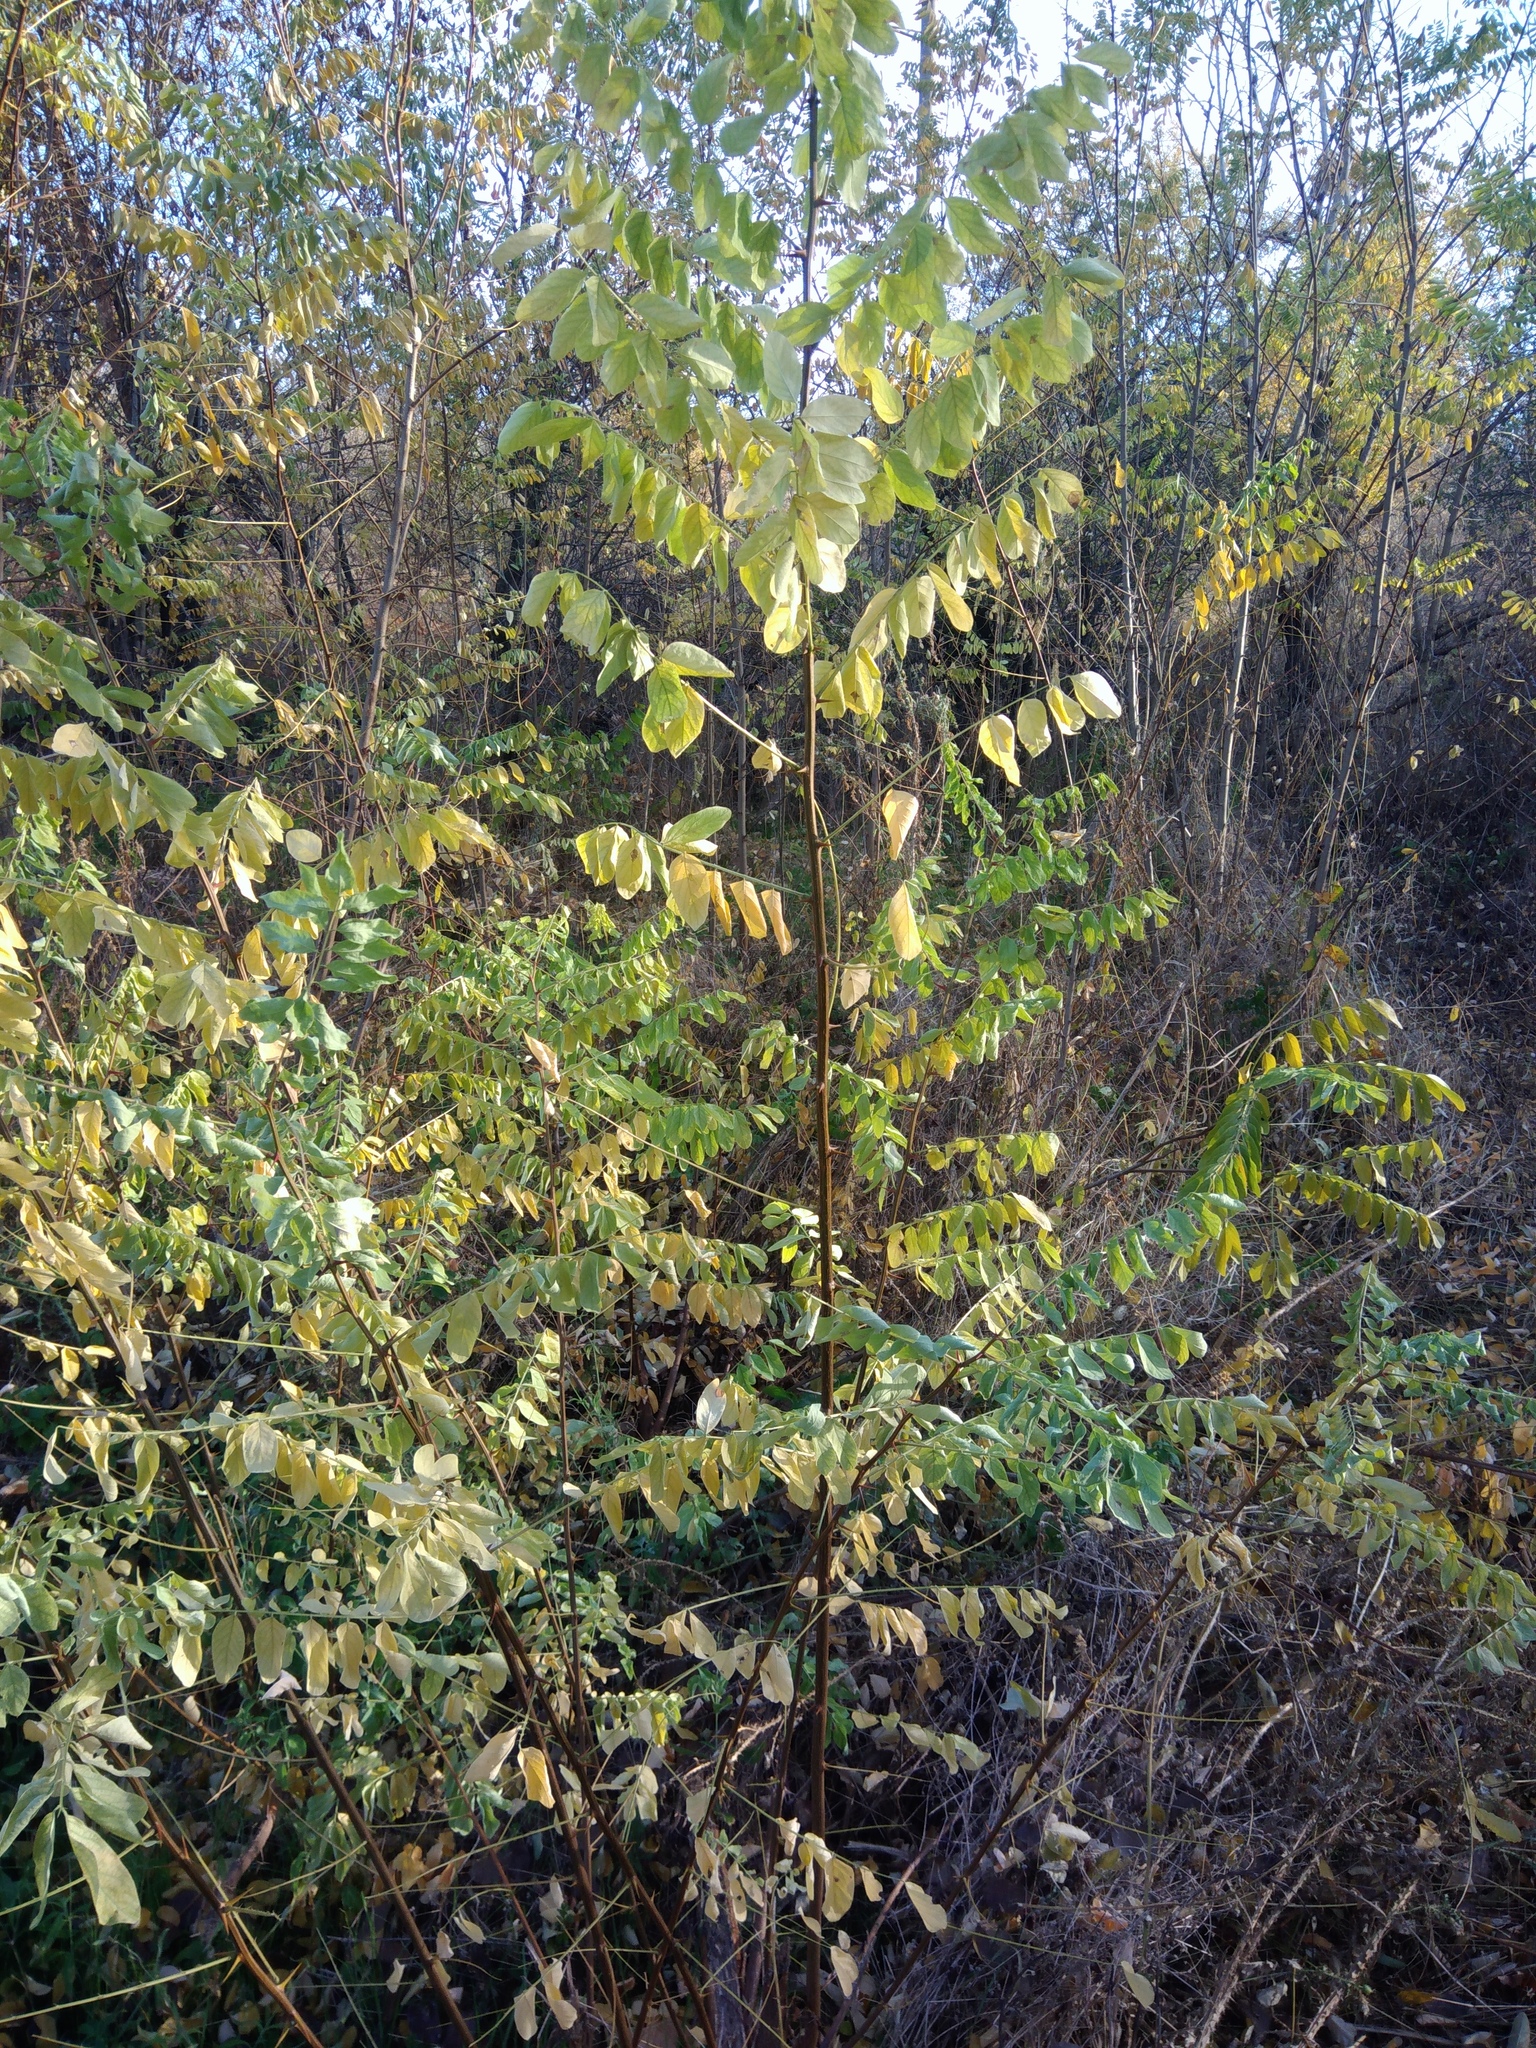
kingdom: Plantae
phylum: Tracheophyta
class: Magnoliopsida
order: Fabales
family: Fabaceae
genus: Robinia
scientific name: Robinia pseudoacacia
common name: Black locust
